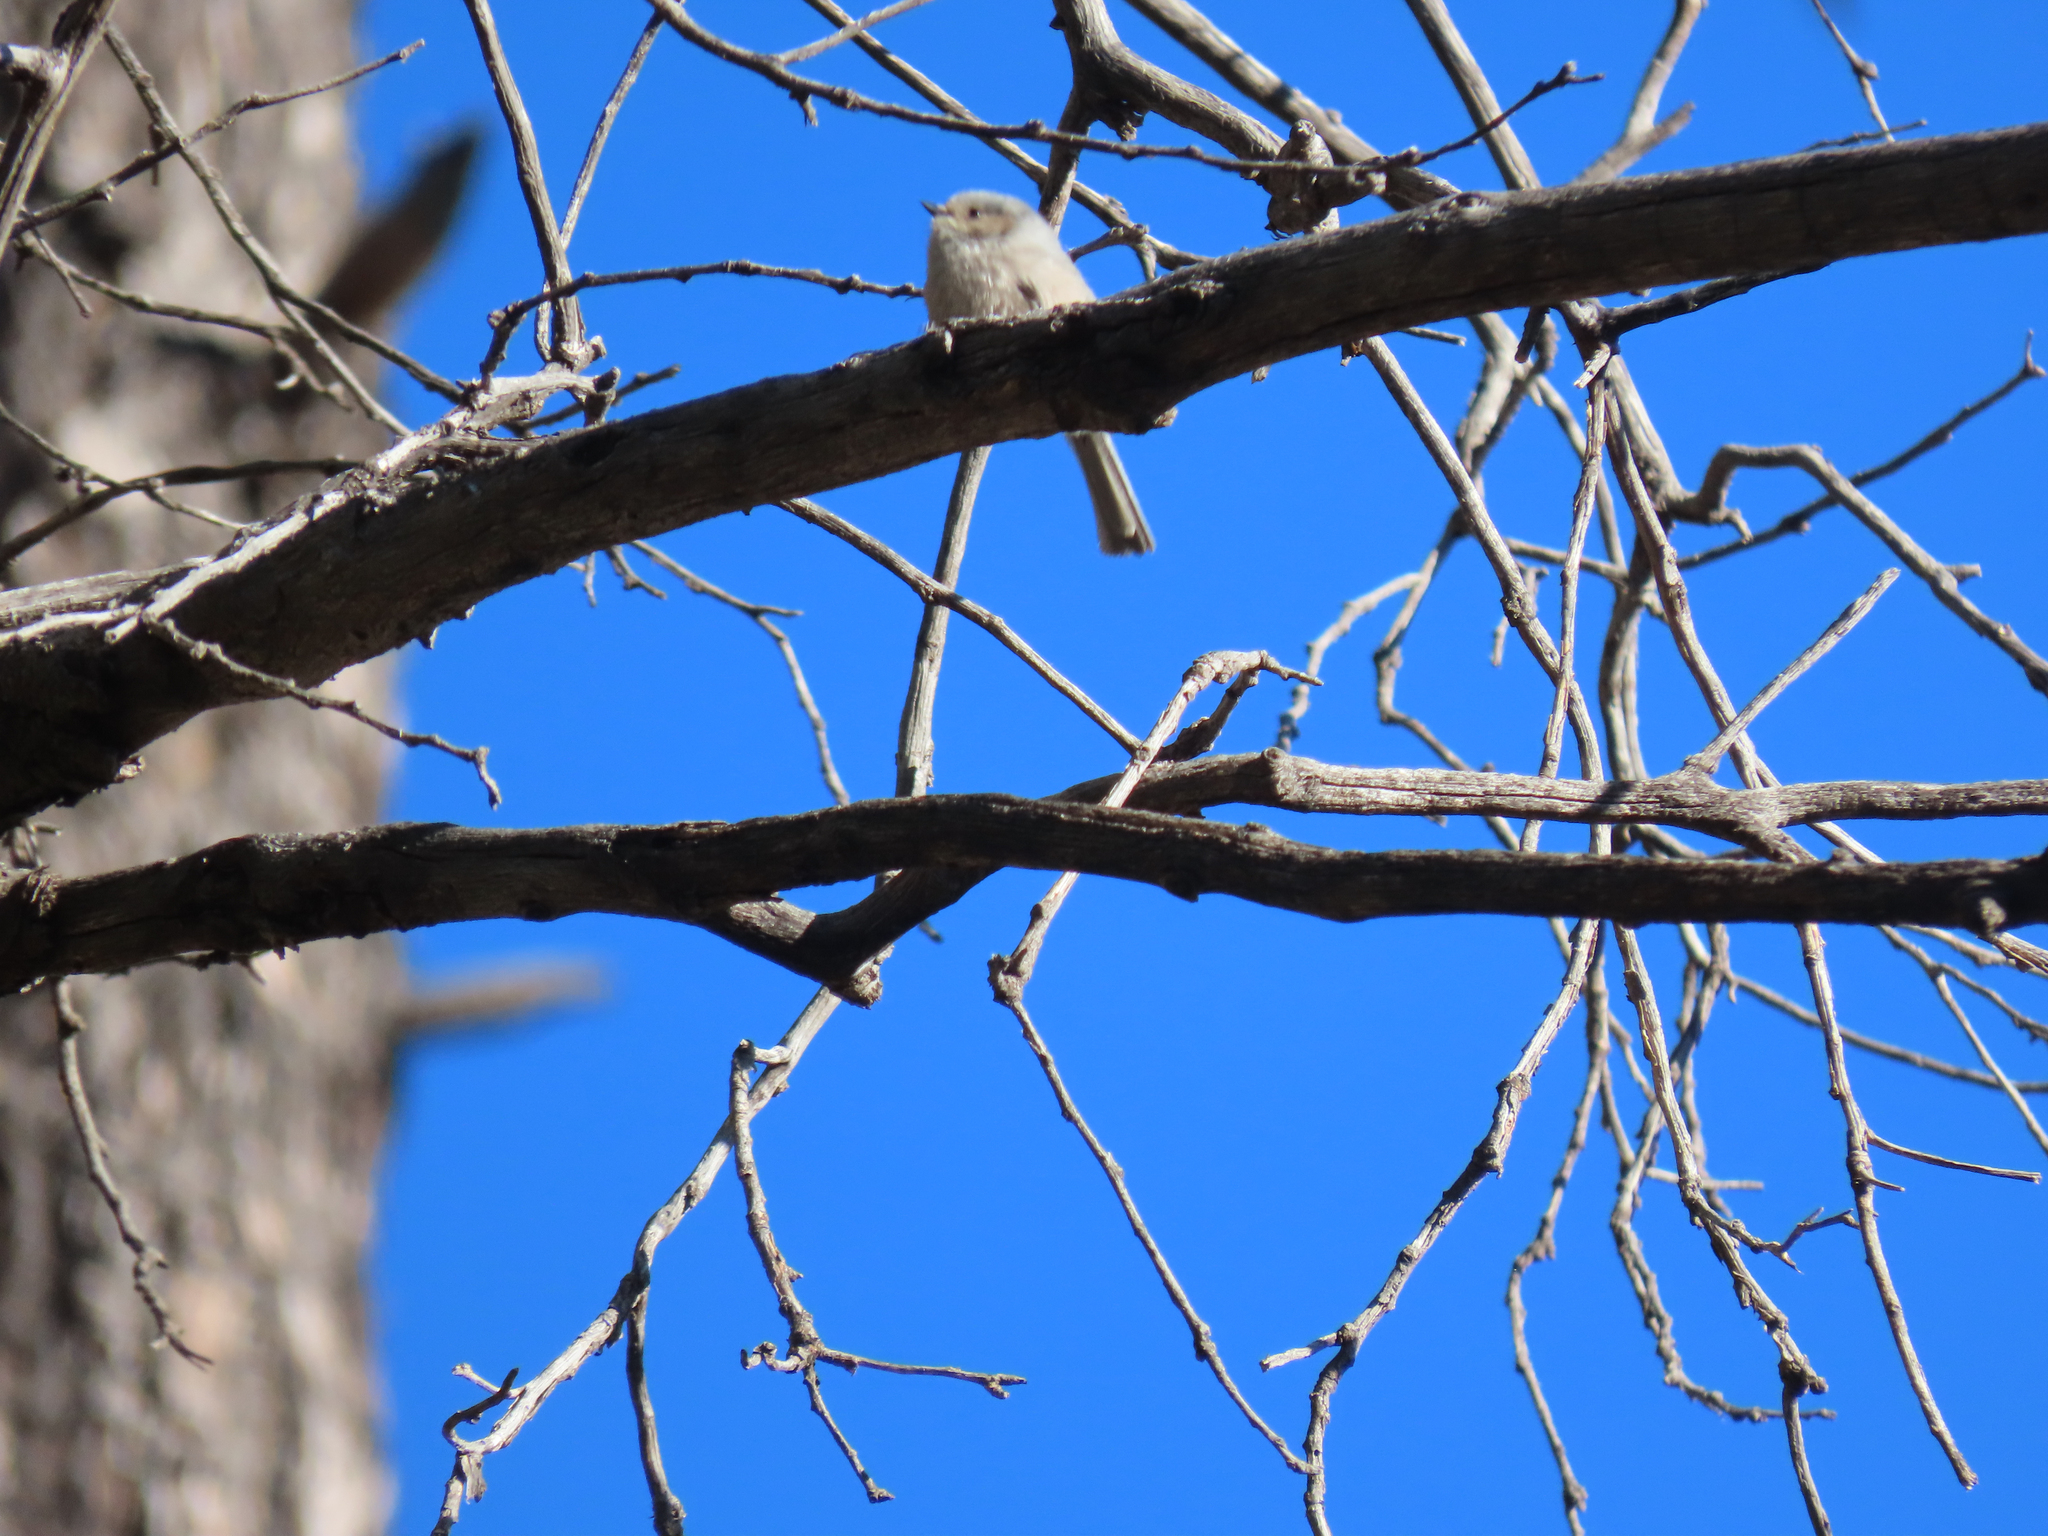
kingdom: Animalia
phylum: Chordata
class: Aves
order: Passeriformes
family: Aegithalidae
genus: Psaltriparus
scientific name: Psaltriparus minimus
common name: American bushtit
